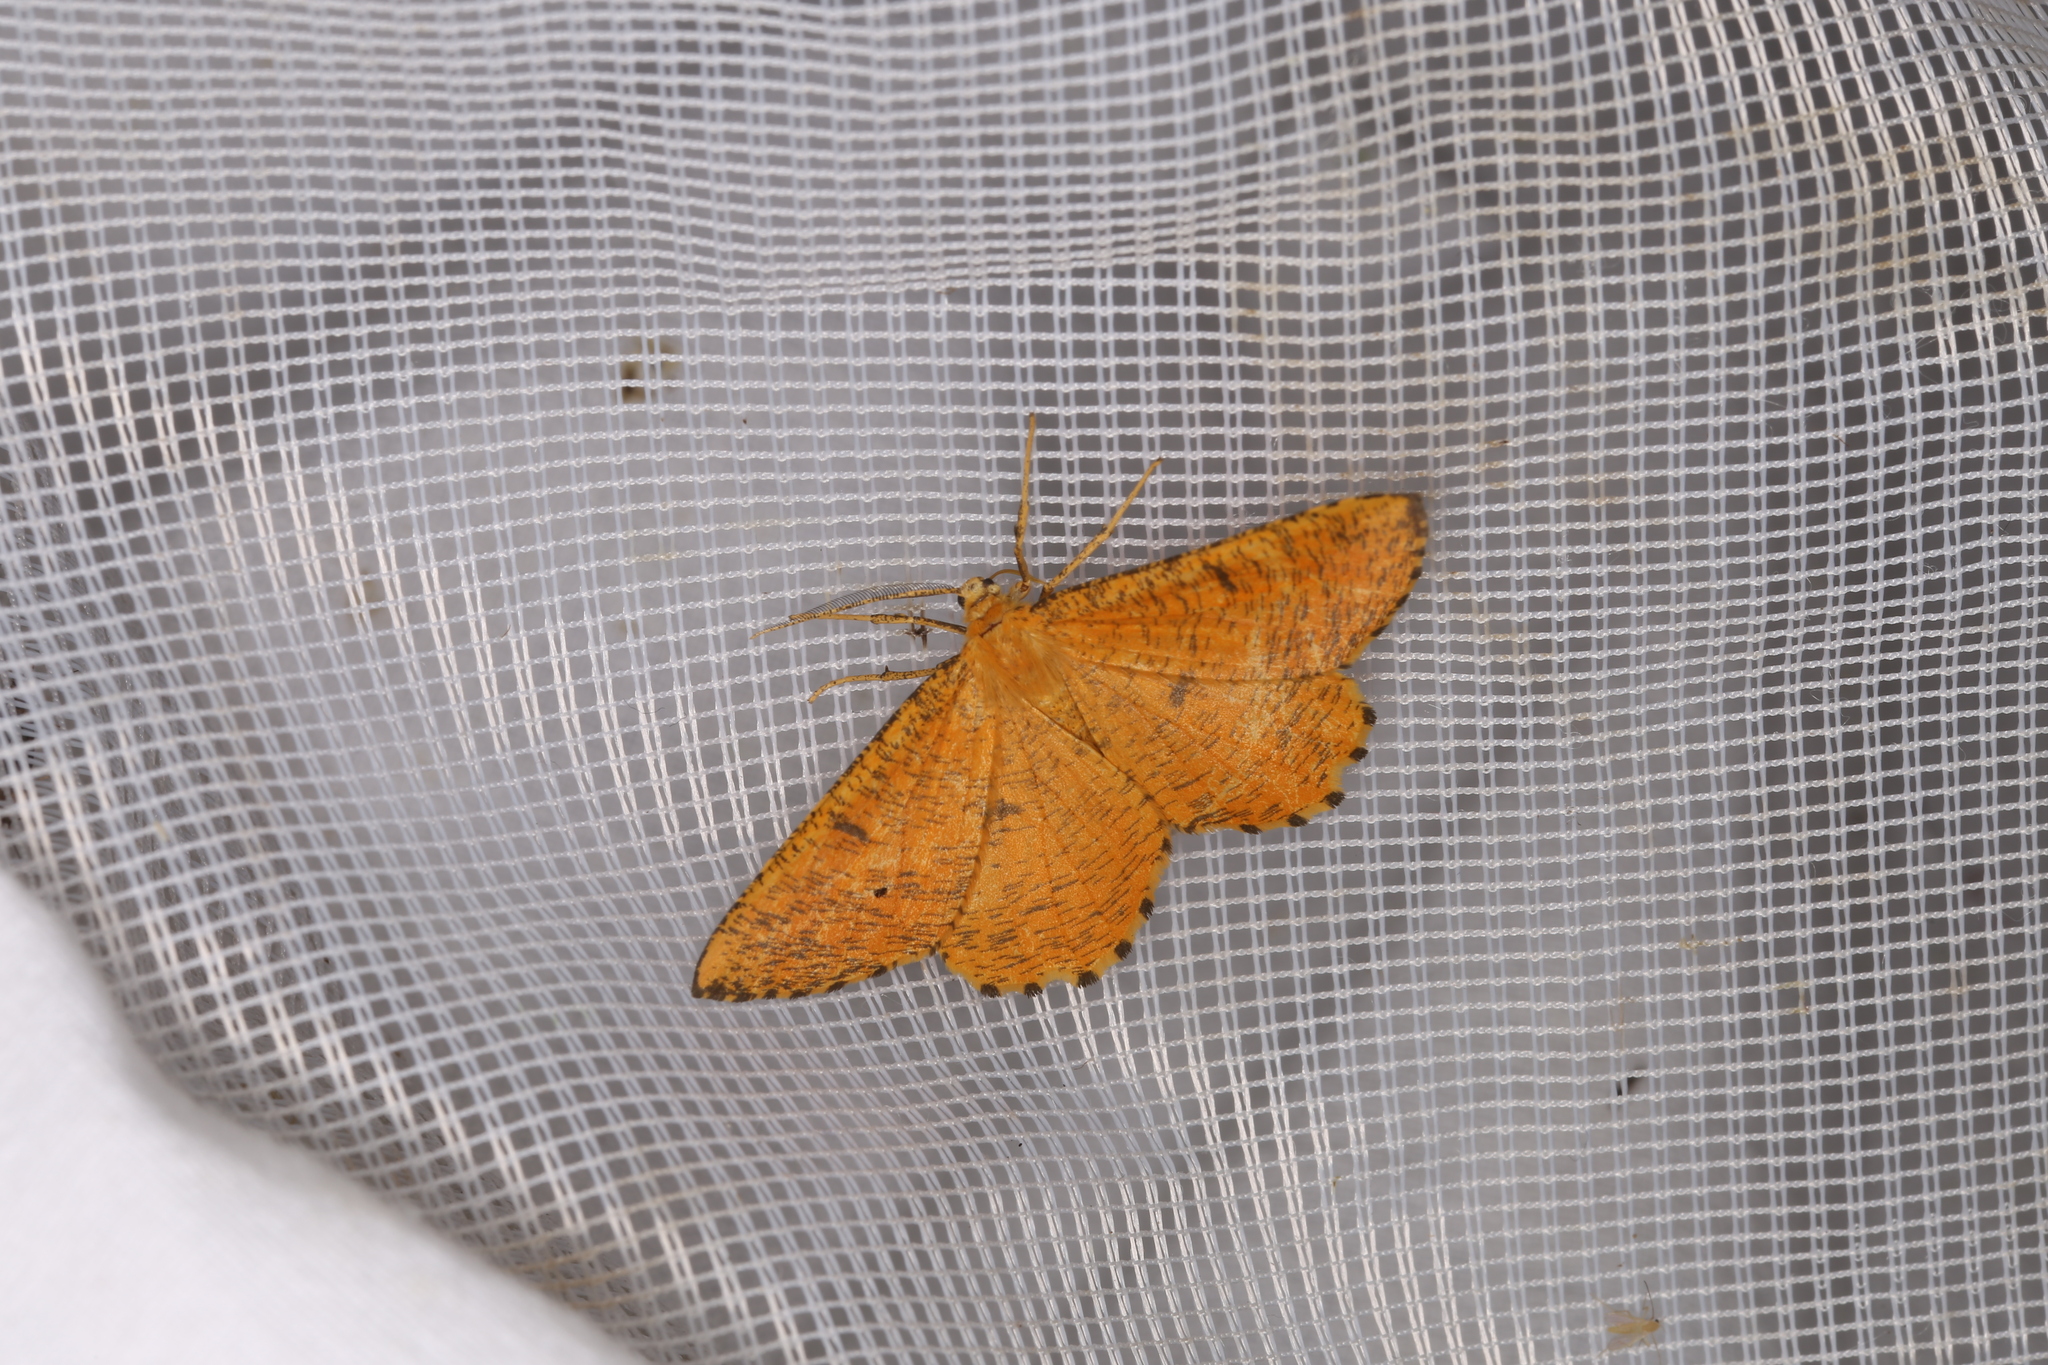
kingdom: Animalia
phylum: Arthropoda
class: Insecta
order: Lepidoptera
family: Geometridae
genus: Angerona
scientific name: Angerona prunaria
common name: Orange moth
